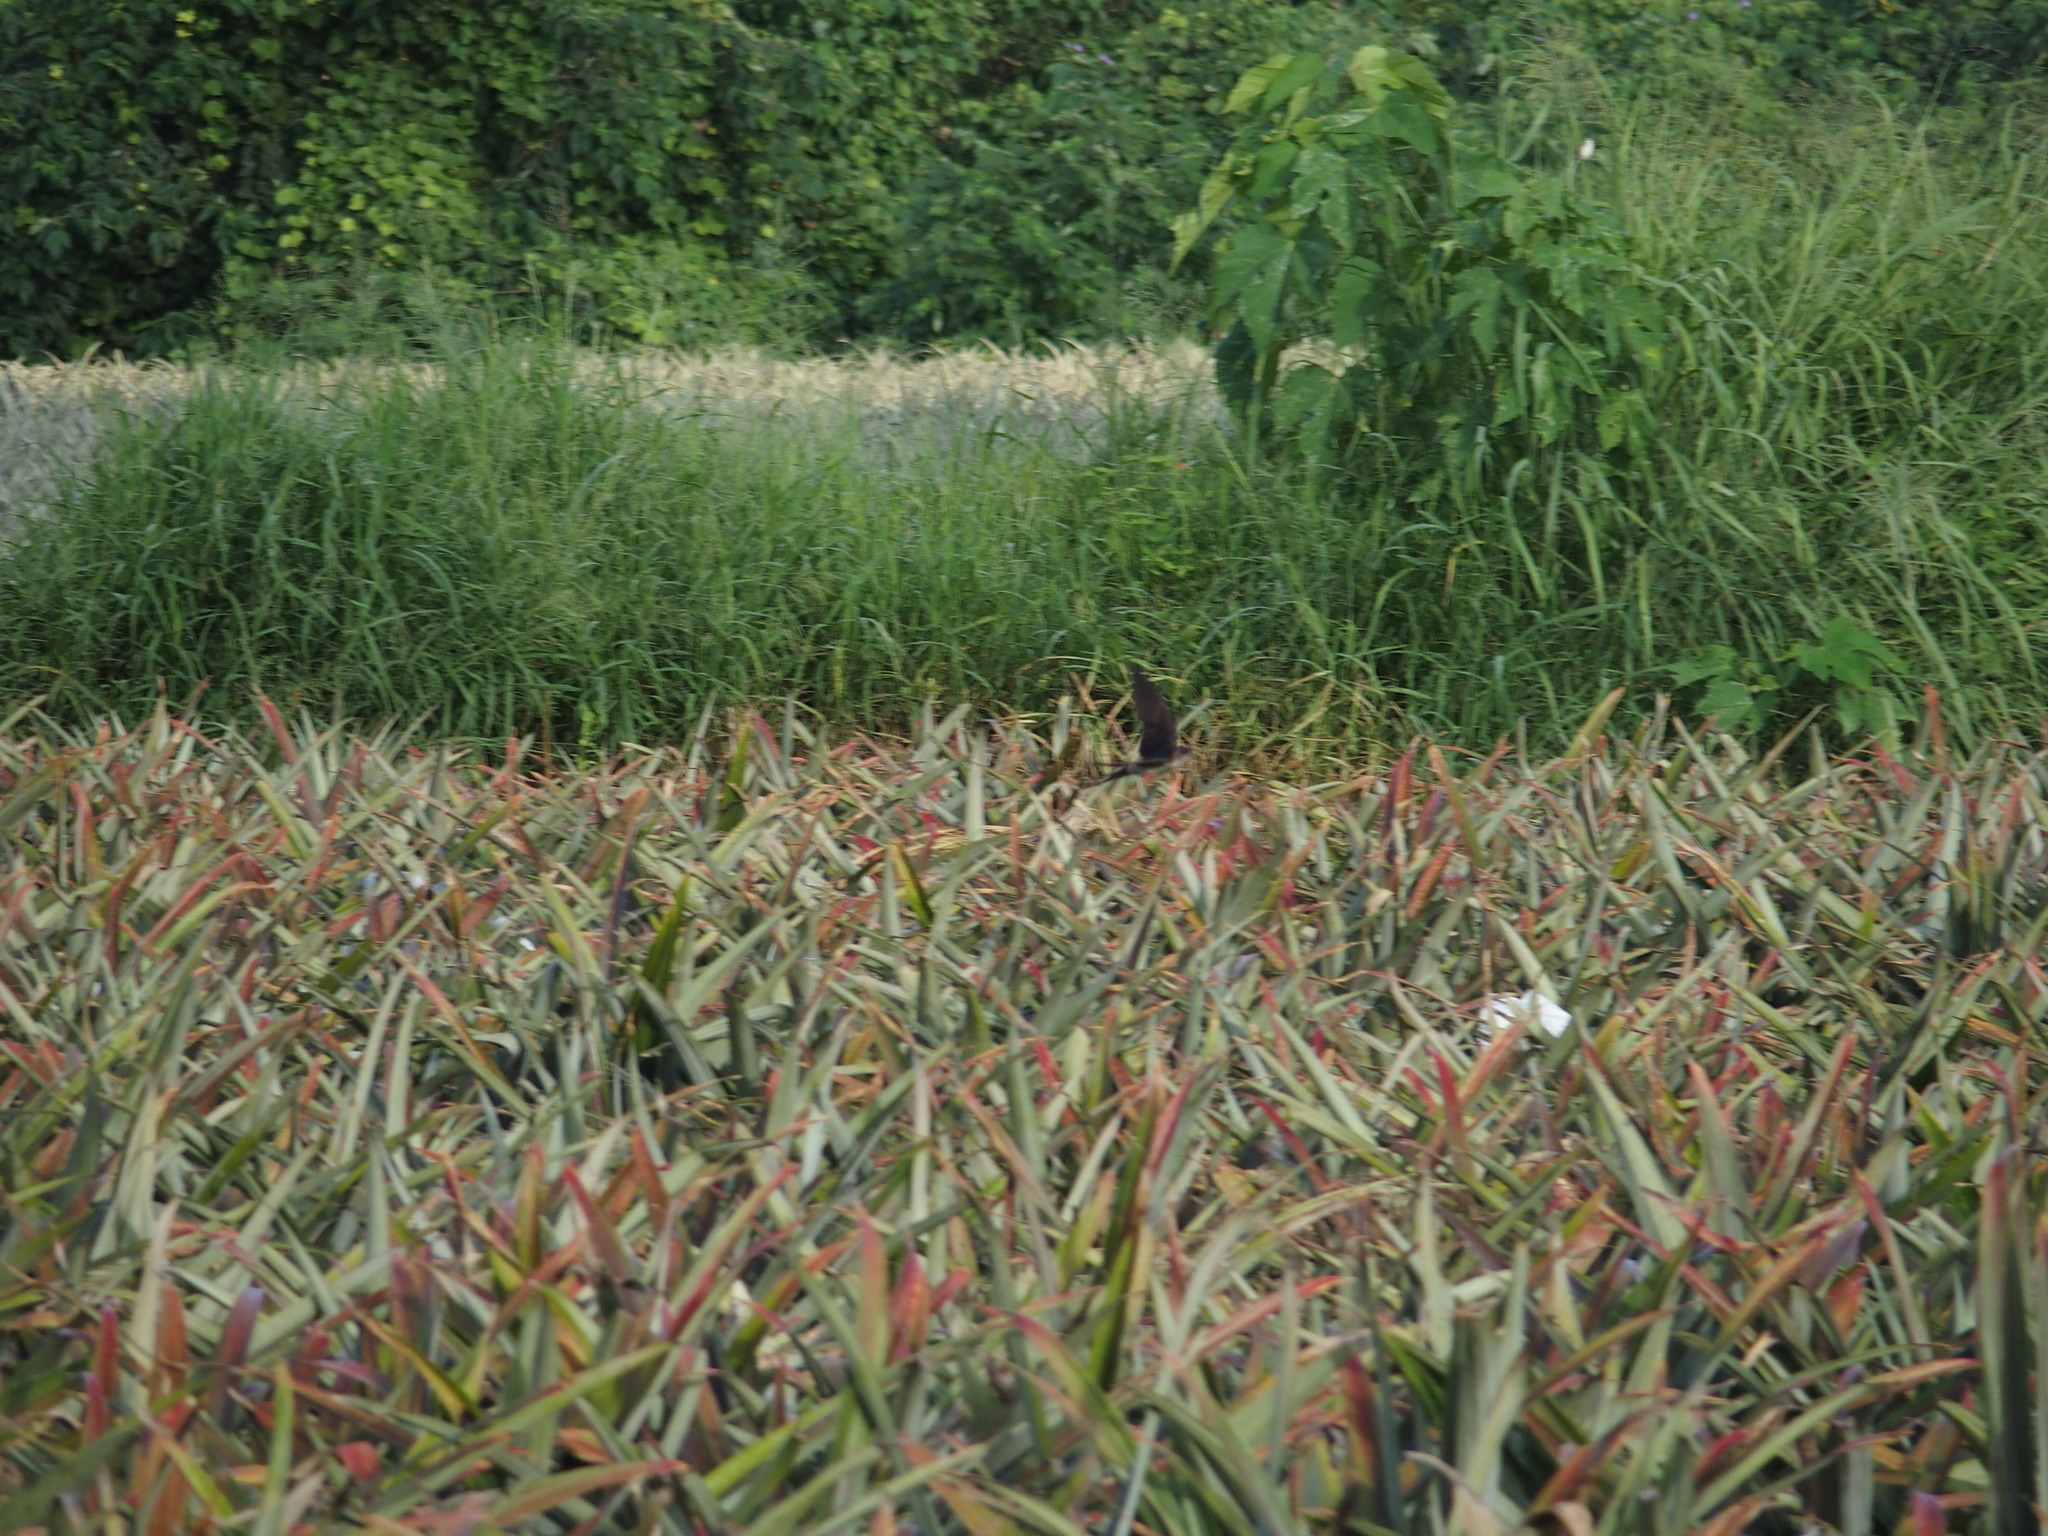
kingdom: Animalia
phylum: Chordata
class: Aves
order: Passeriformes
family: Hirundinidae
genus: Cecropis
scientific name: Cecropis striolata
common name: Striated swallow
